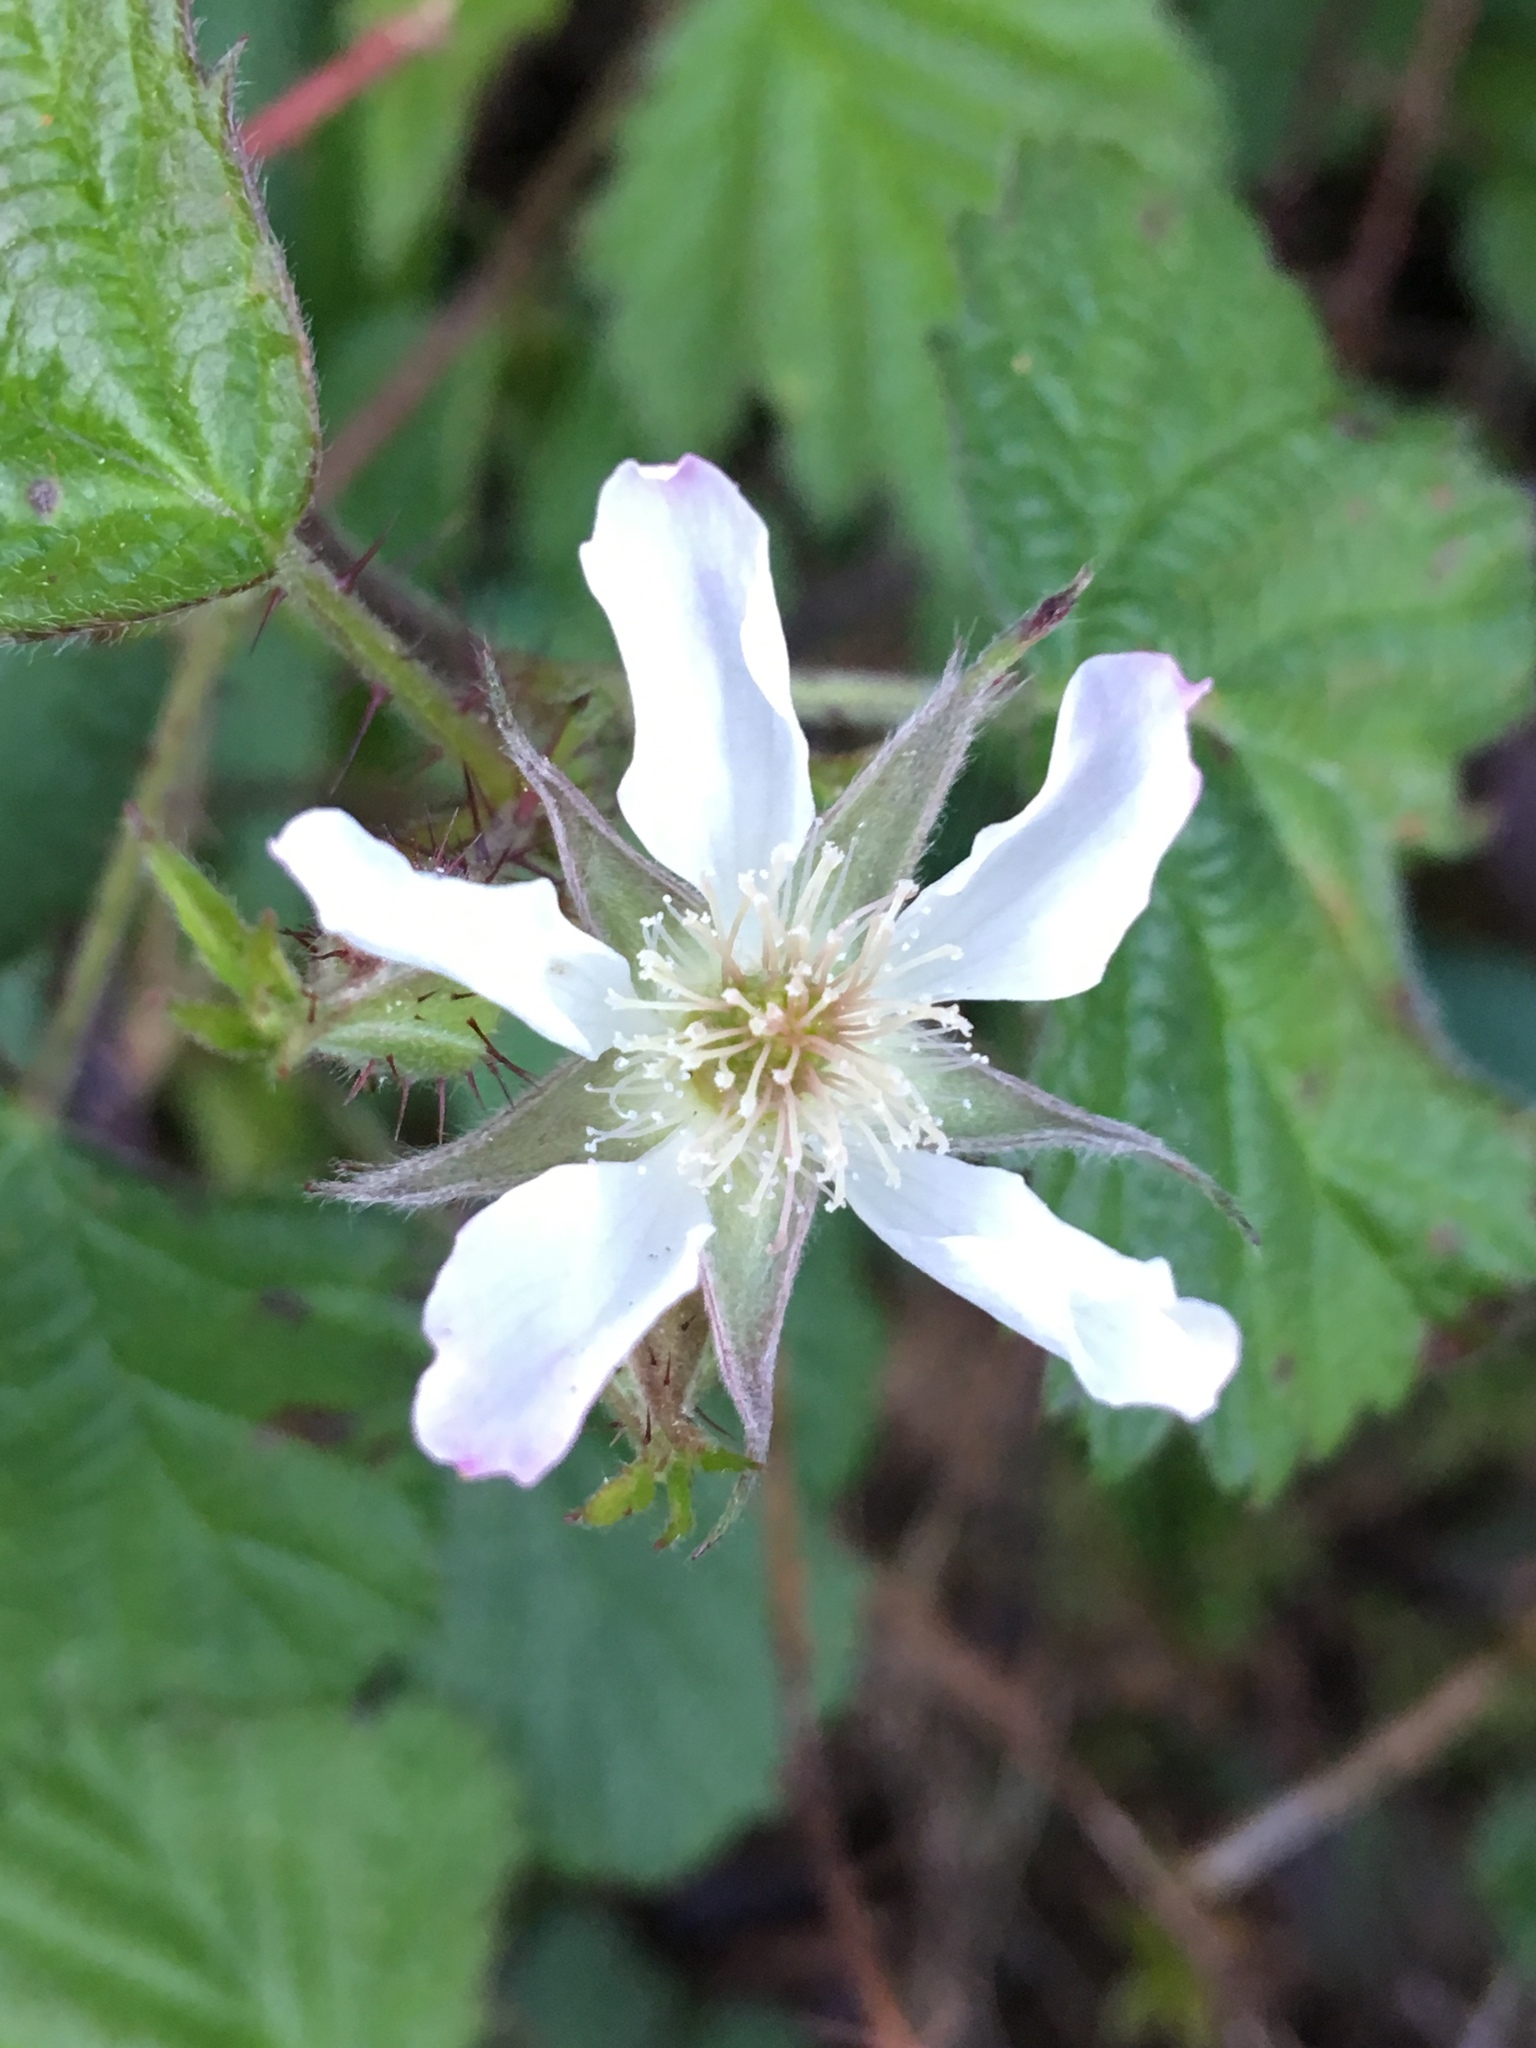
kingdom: Plantae
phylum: Tracheophyta
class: Magnoliopsida
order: Rosales
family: Rosaceae
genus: Rubus
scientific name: Rubus ursinus
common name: Pacific blackberry
